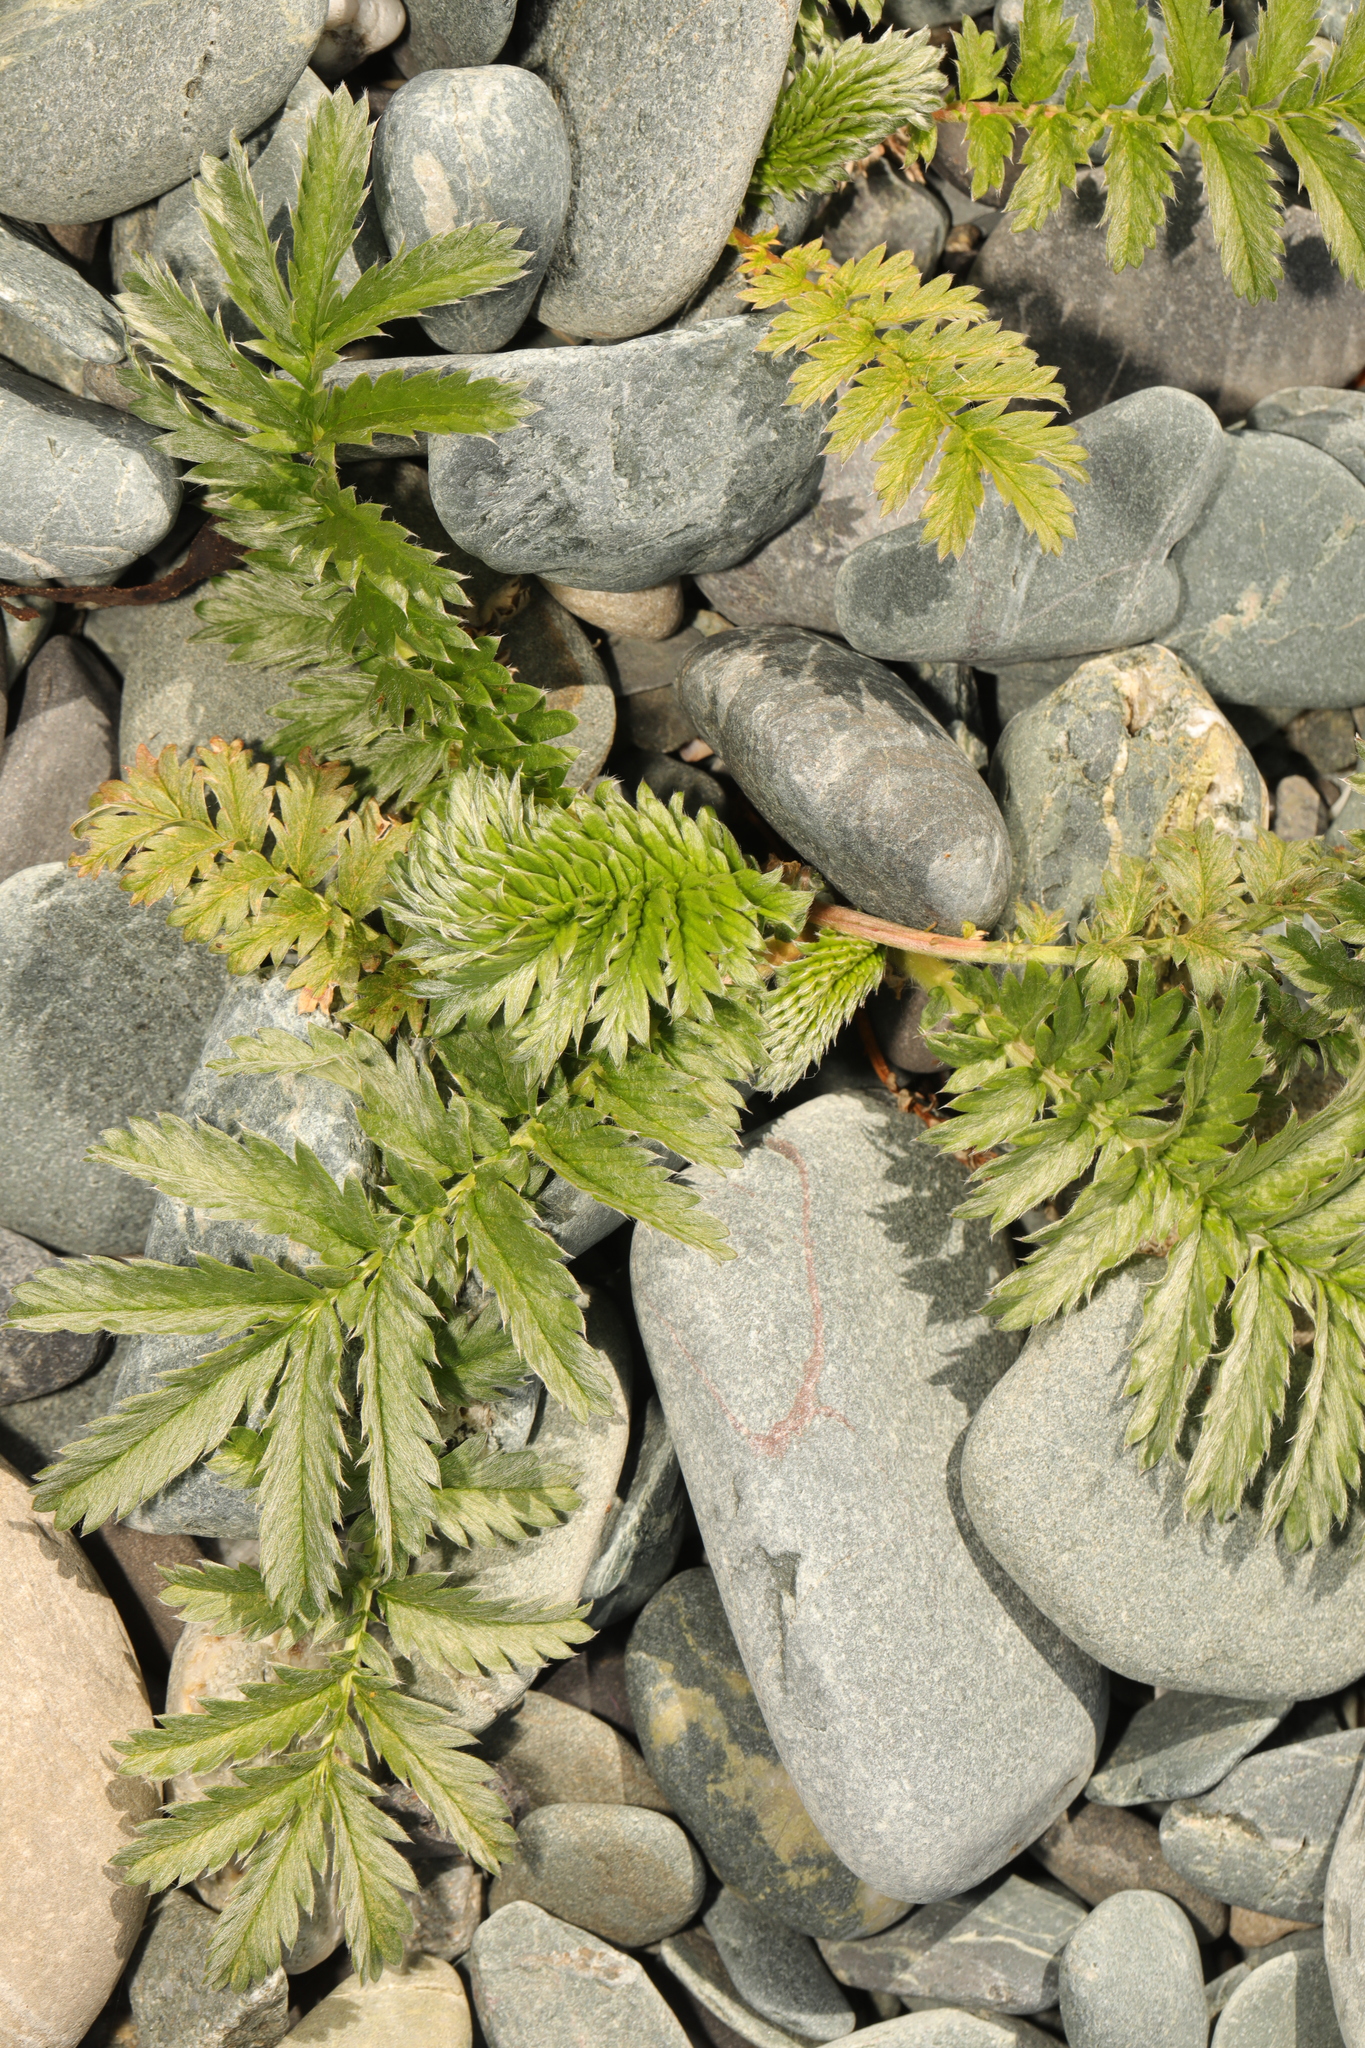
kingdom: Plantae
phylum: Tracheophyta
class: Magnoliopsida
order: Rosales
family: Rosaceae
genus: Argentina
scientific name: Argentina anserina
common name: Common silverweed
